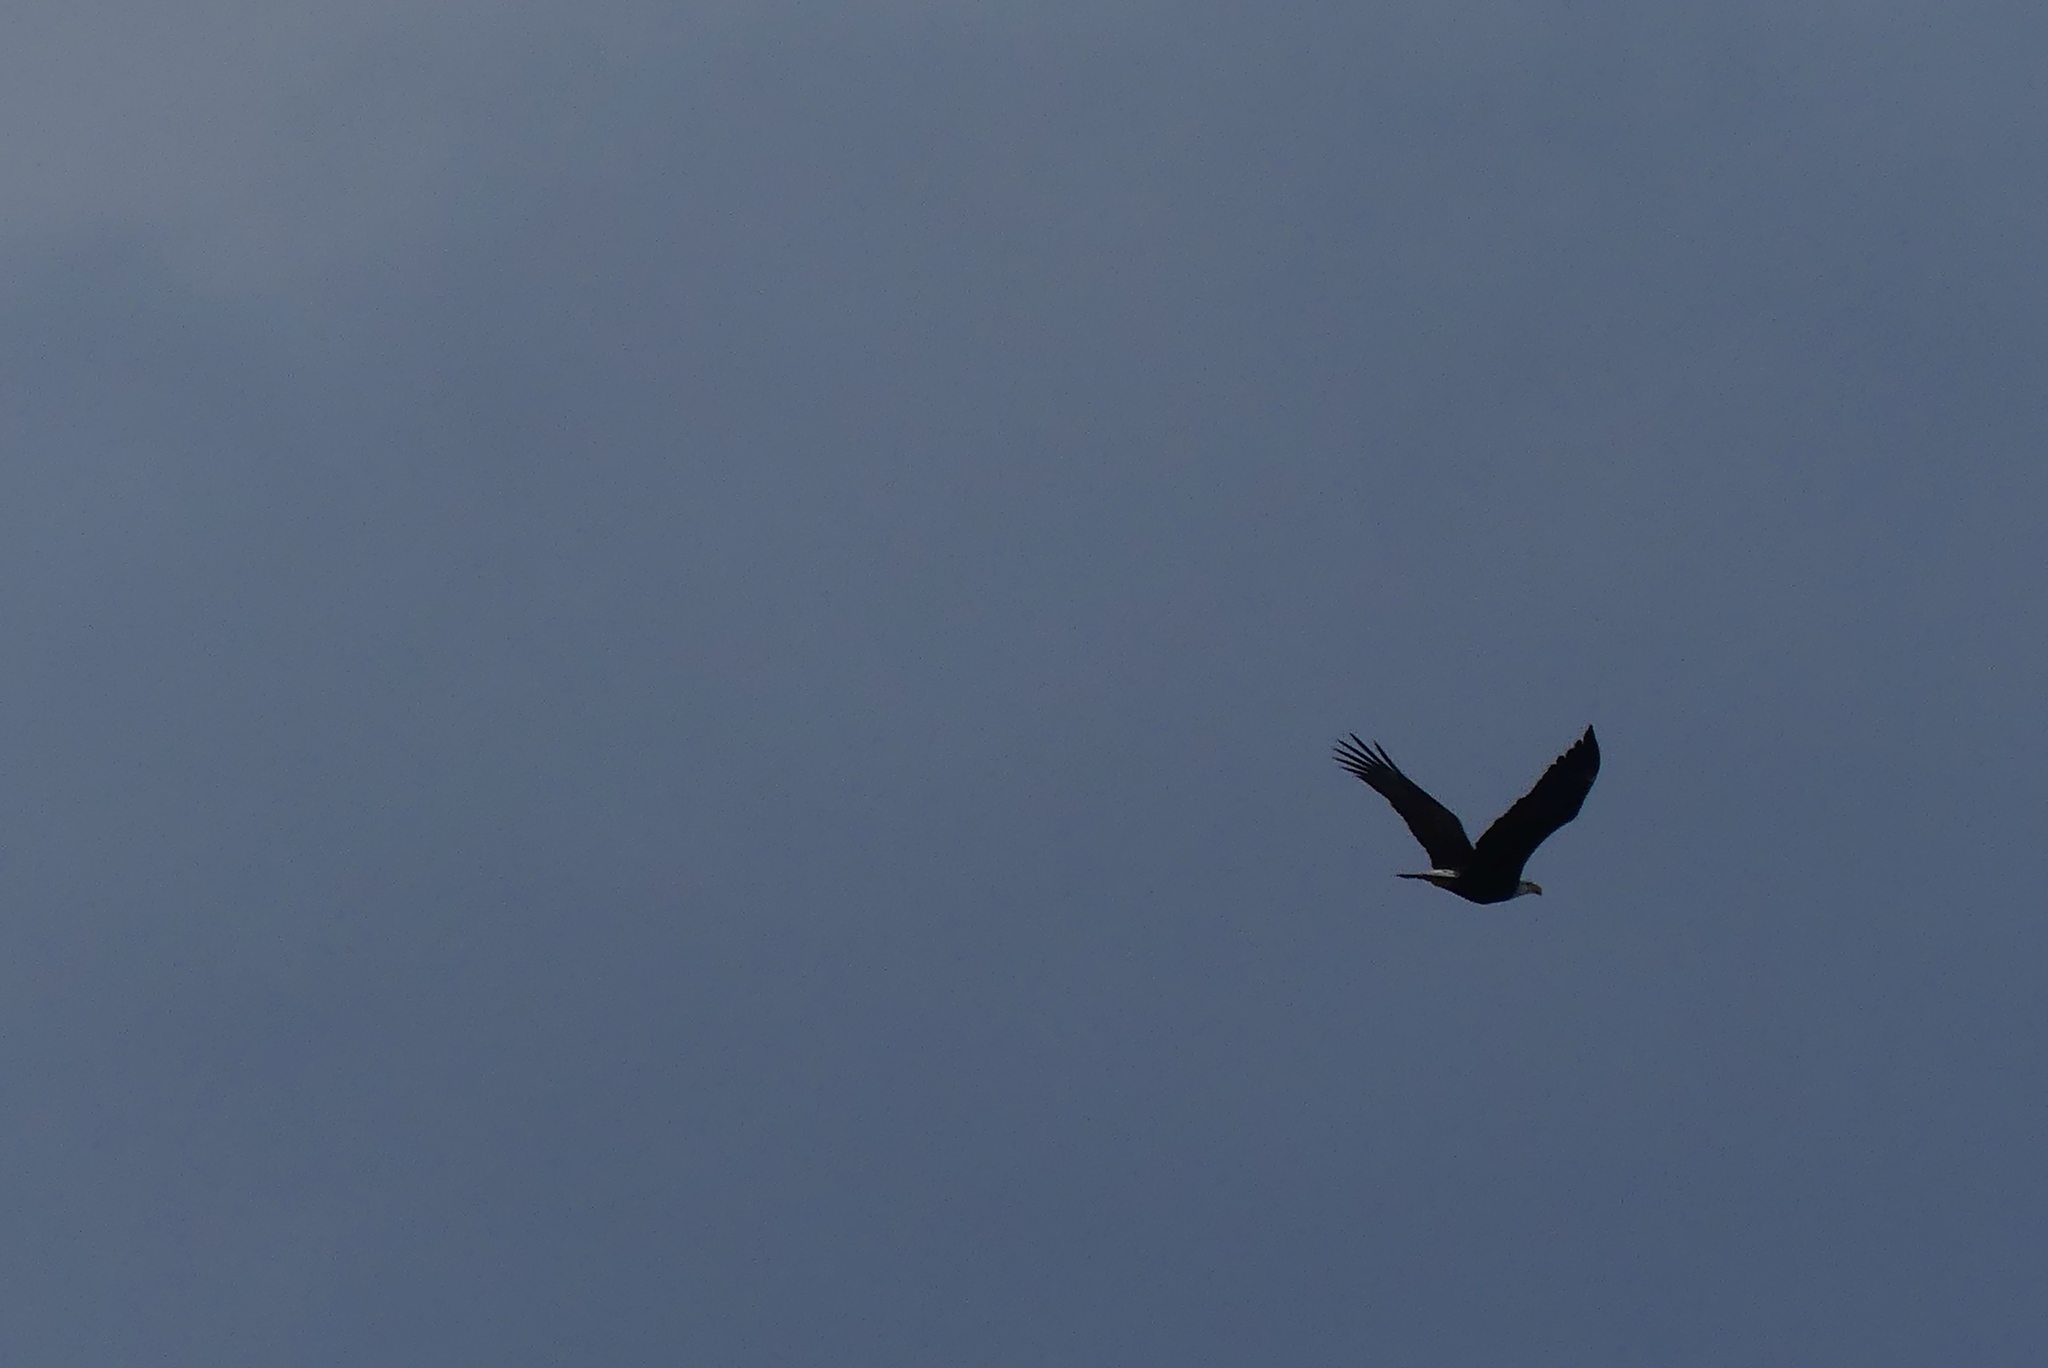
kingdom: Animalia
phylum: Chordata
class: Aves
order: Accipitriformes
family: Accipitridae
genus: Haliaeetus
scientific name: Haliaeetus leucocephalus
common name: Bald eagle
